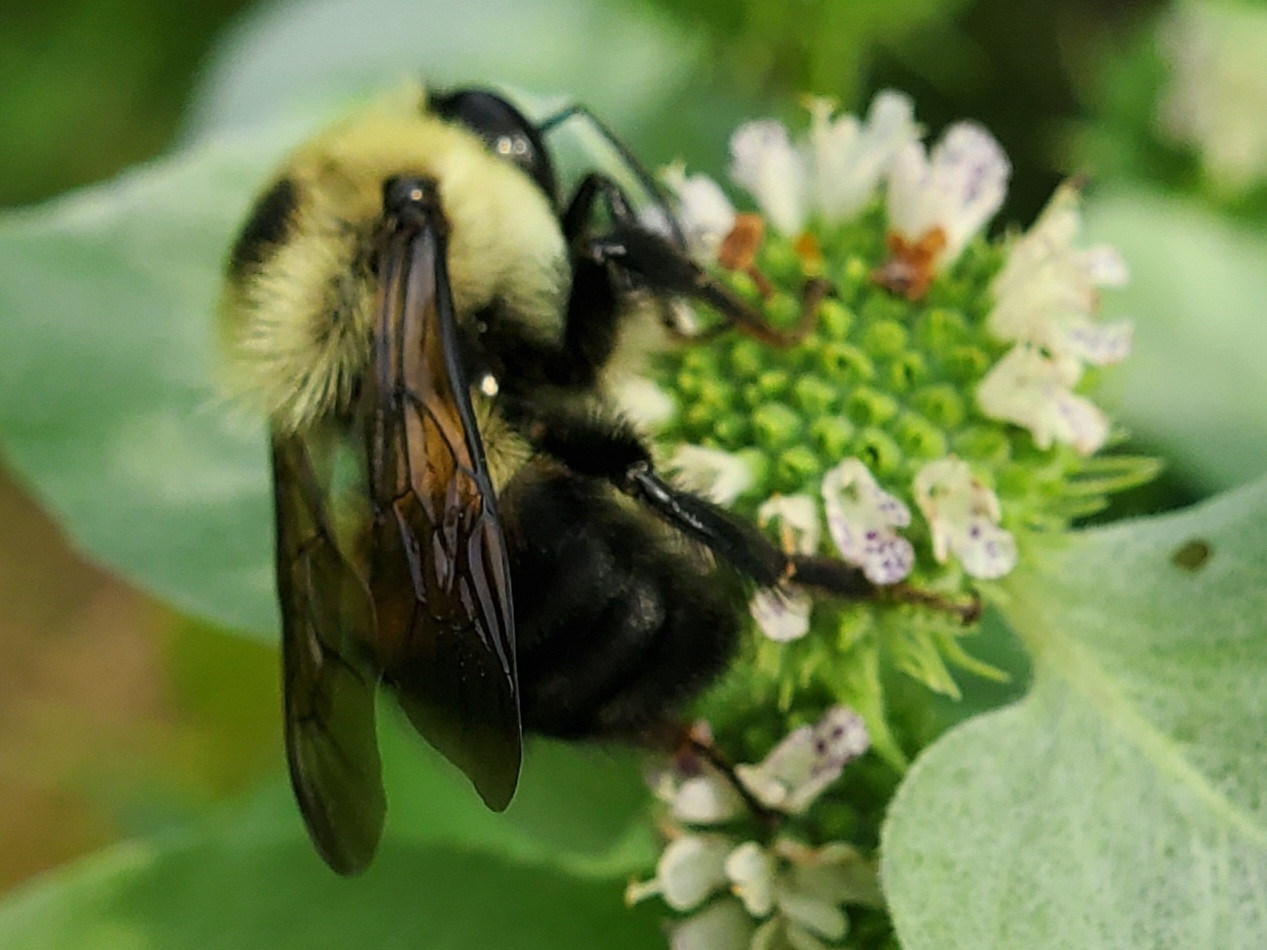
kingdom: Animalia
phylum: Arthropoda
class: Insecta
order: Hymenoptera
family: Apidae
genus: Bombus
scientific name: Bombus griseocollis
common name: Brown-belted bumble bee
